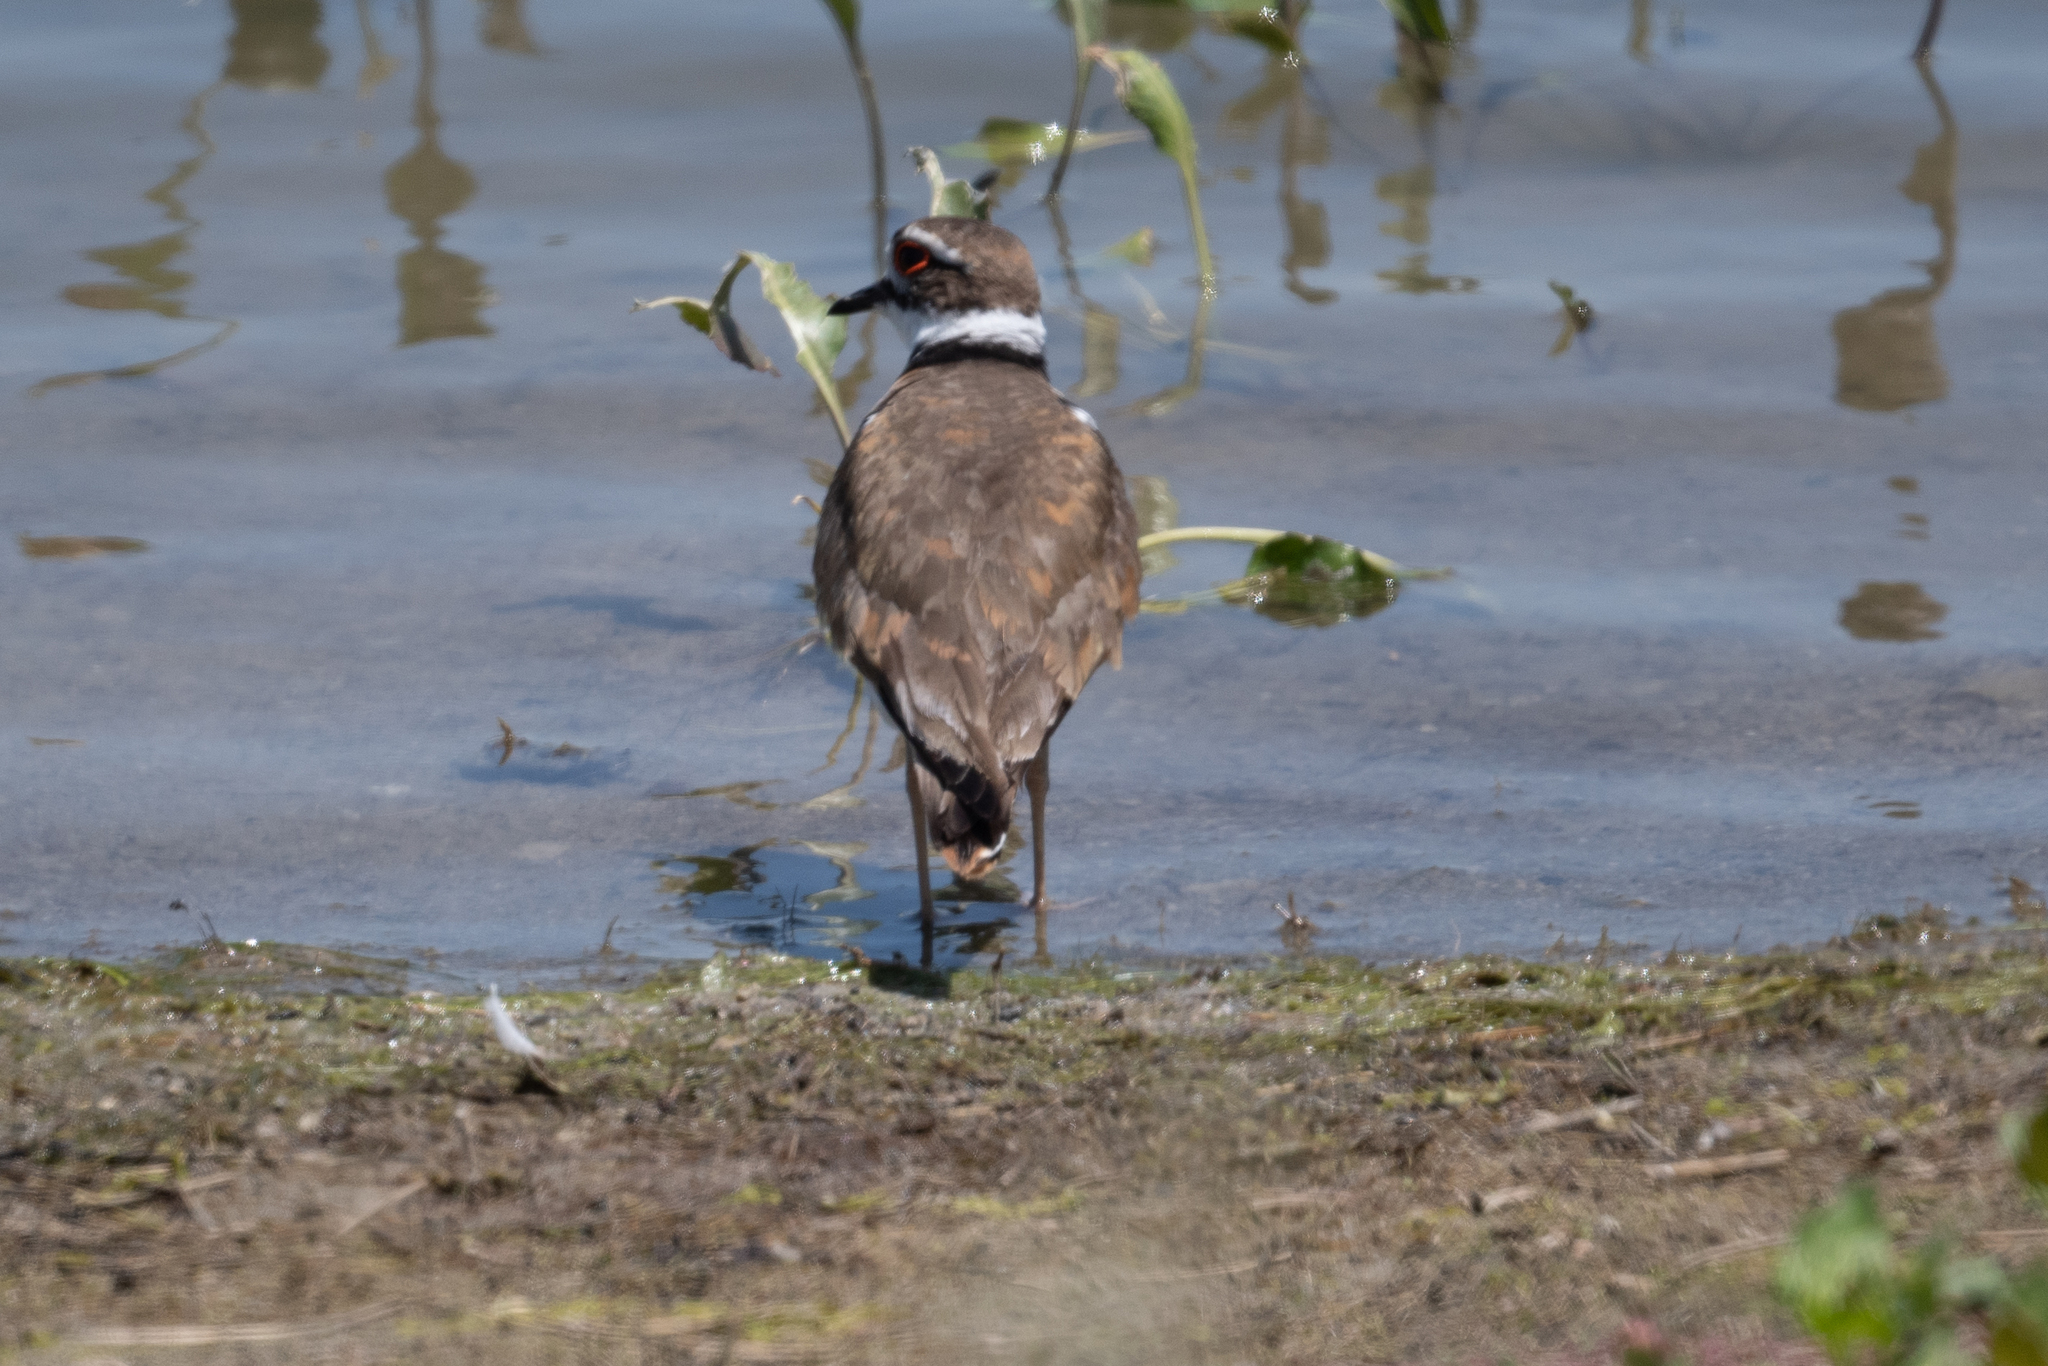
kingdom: Animalia
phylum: Chordata
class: Aves
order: Charadriiformes
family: Charadriidae
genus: Charadrius
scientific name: Charadrius vociferus
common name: Killdeer
